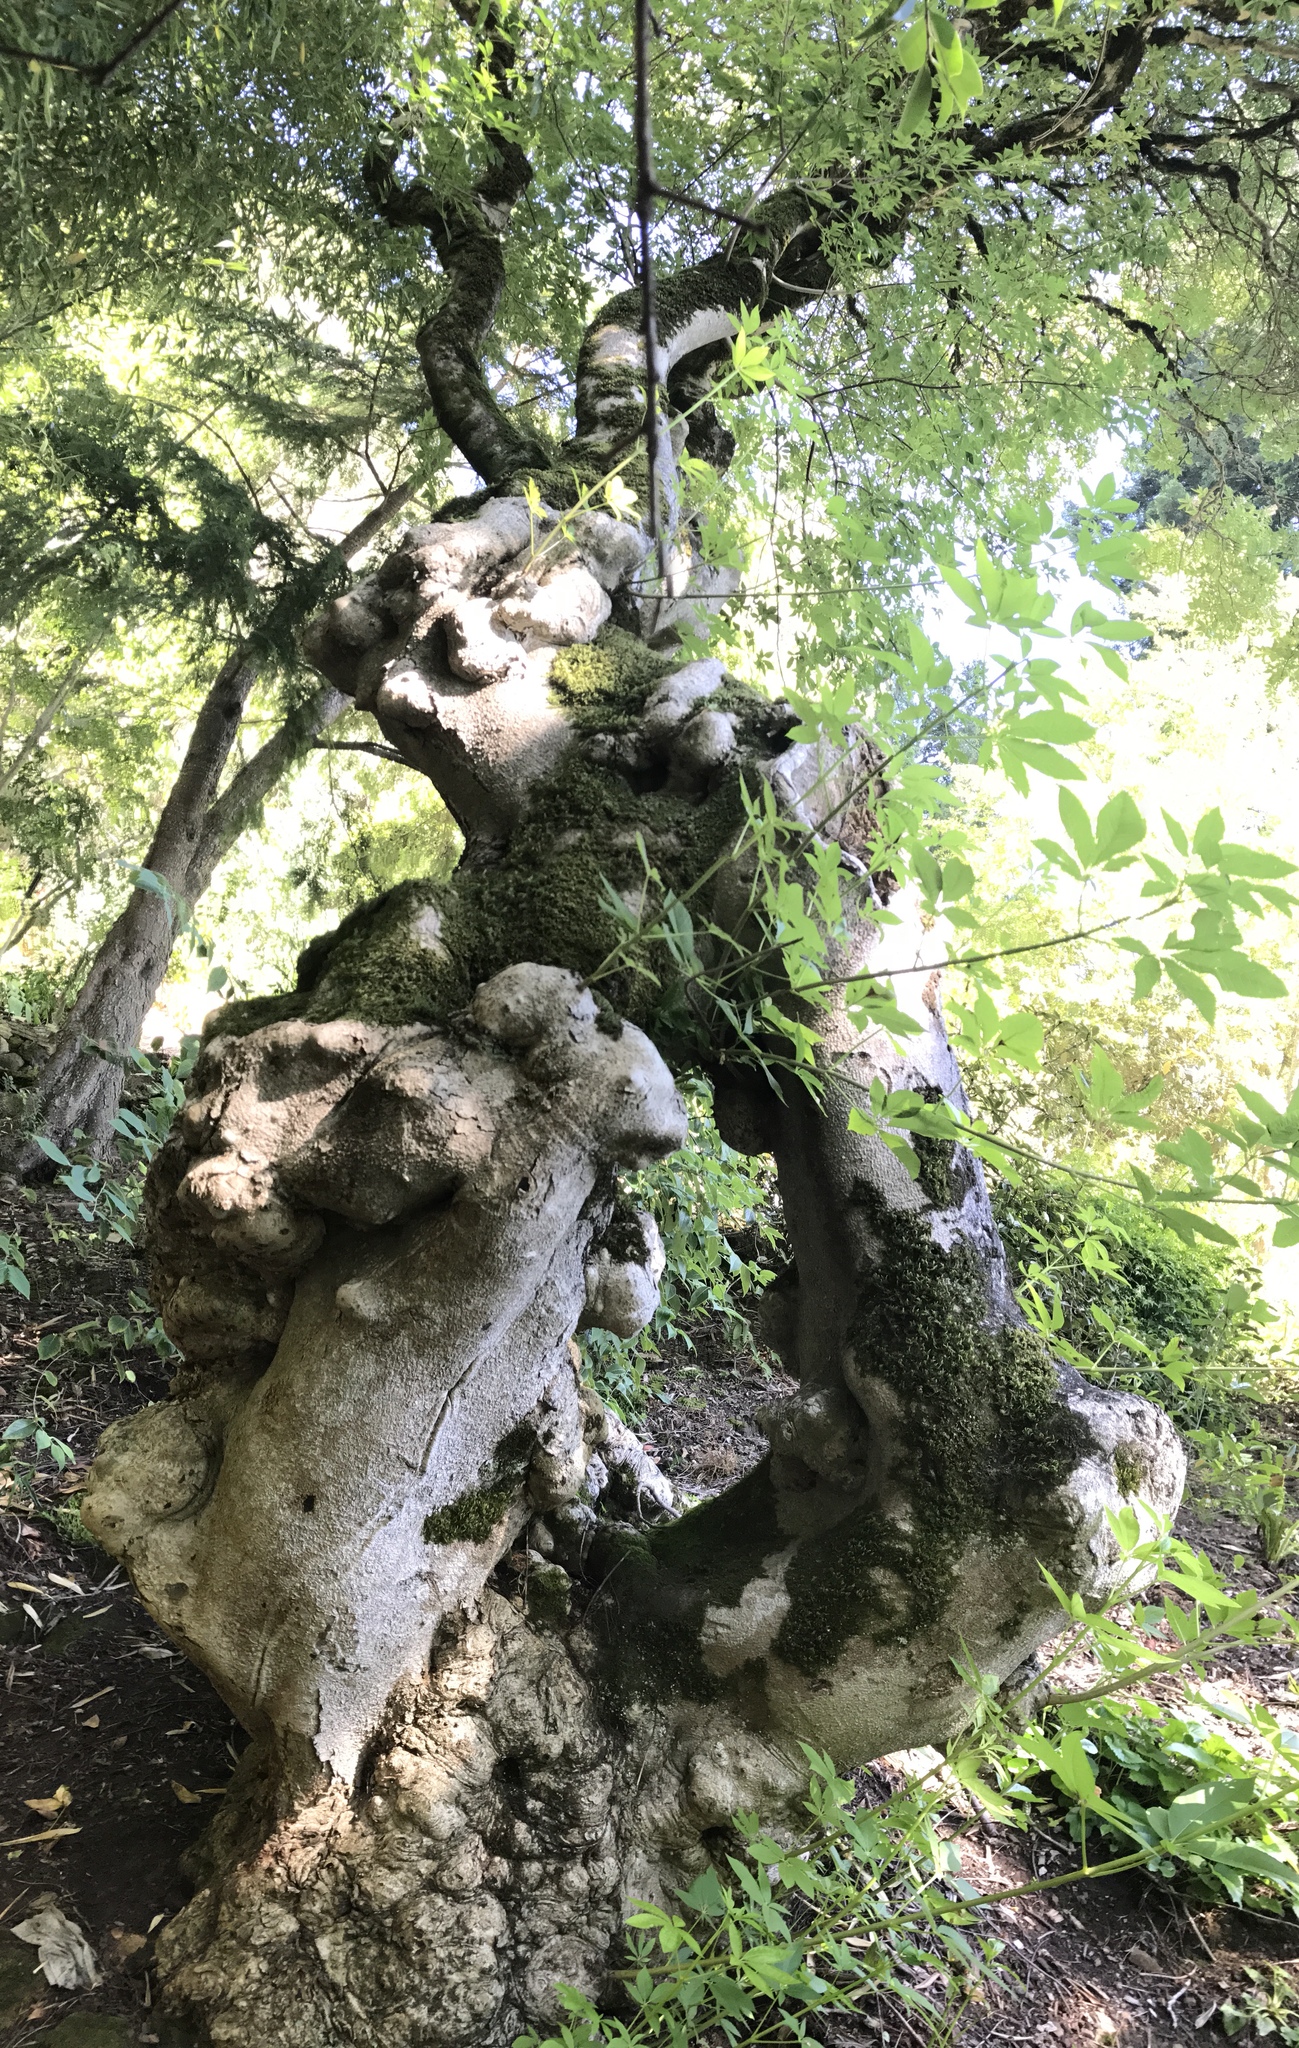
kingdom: Plantae
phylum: Tracheophyta
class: Magnoliopsida
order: Sapindales
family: Sapindaceae
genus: Aesculus
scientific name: Aesculus californica
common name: California buckeye
